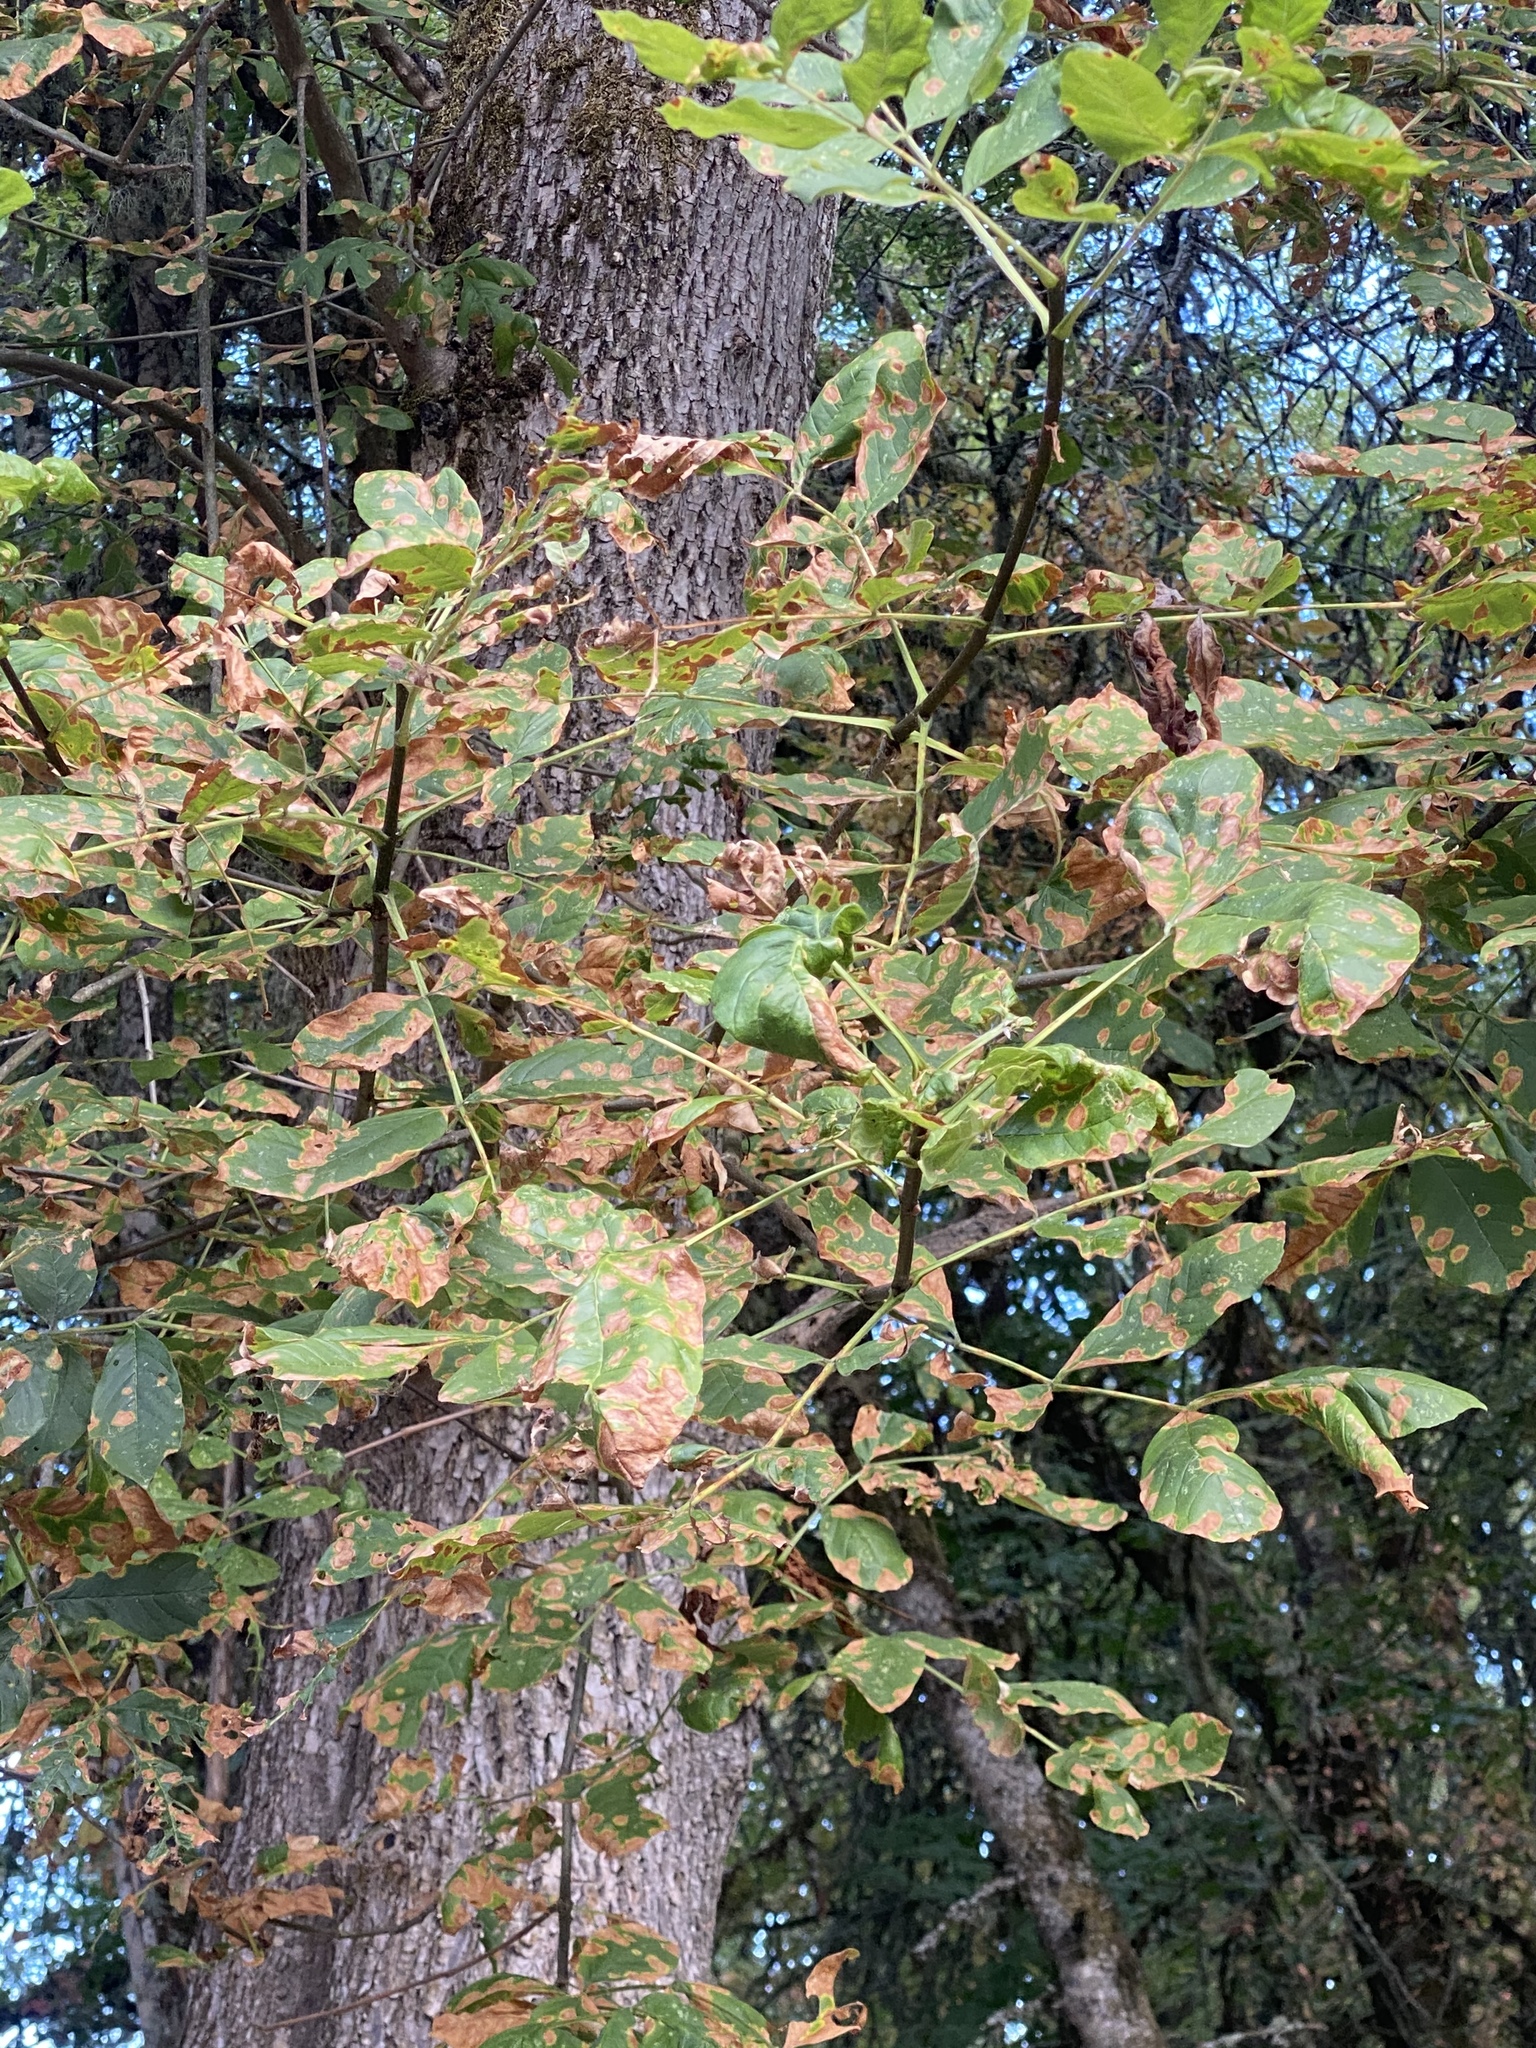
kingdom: Plantae
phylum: Tracheophyta
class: Magnoliopsida
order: Lamiales
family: Oleaceae
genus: Fraxinus
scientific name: Fraxinus latifolia
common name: Oregon ash
